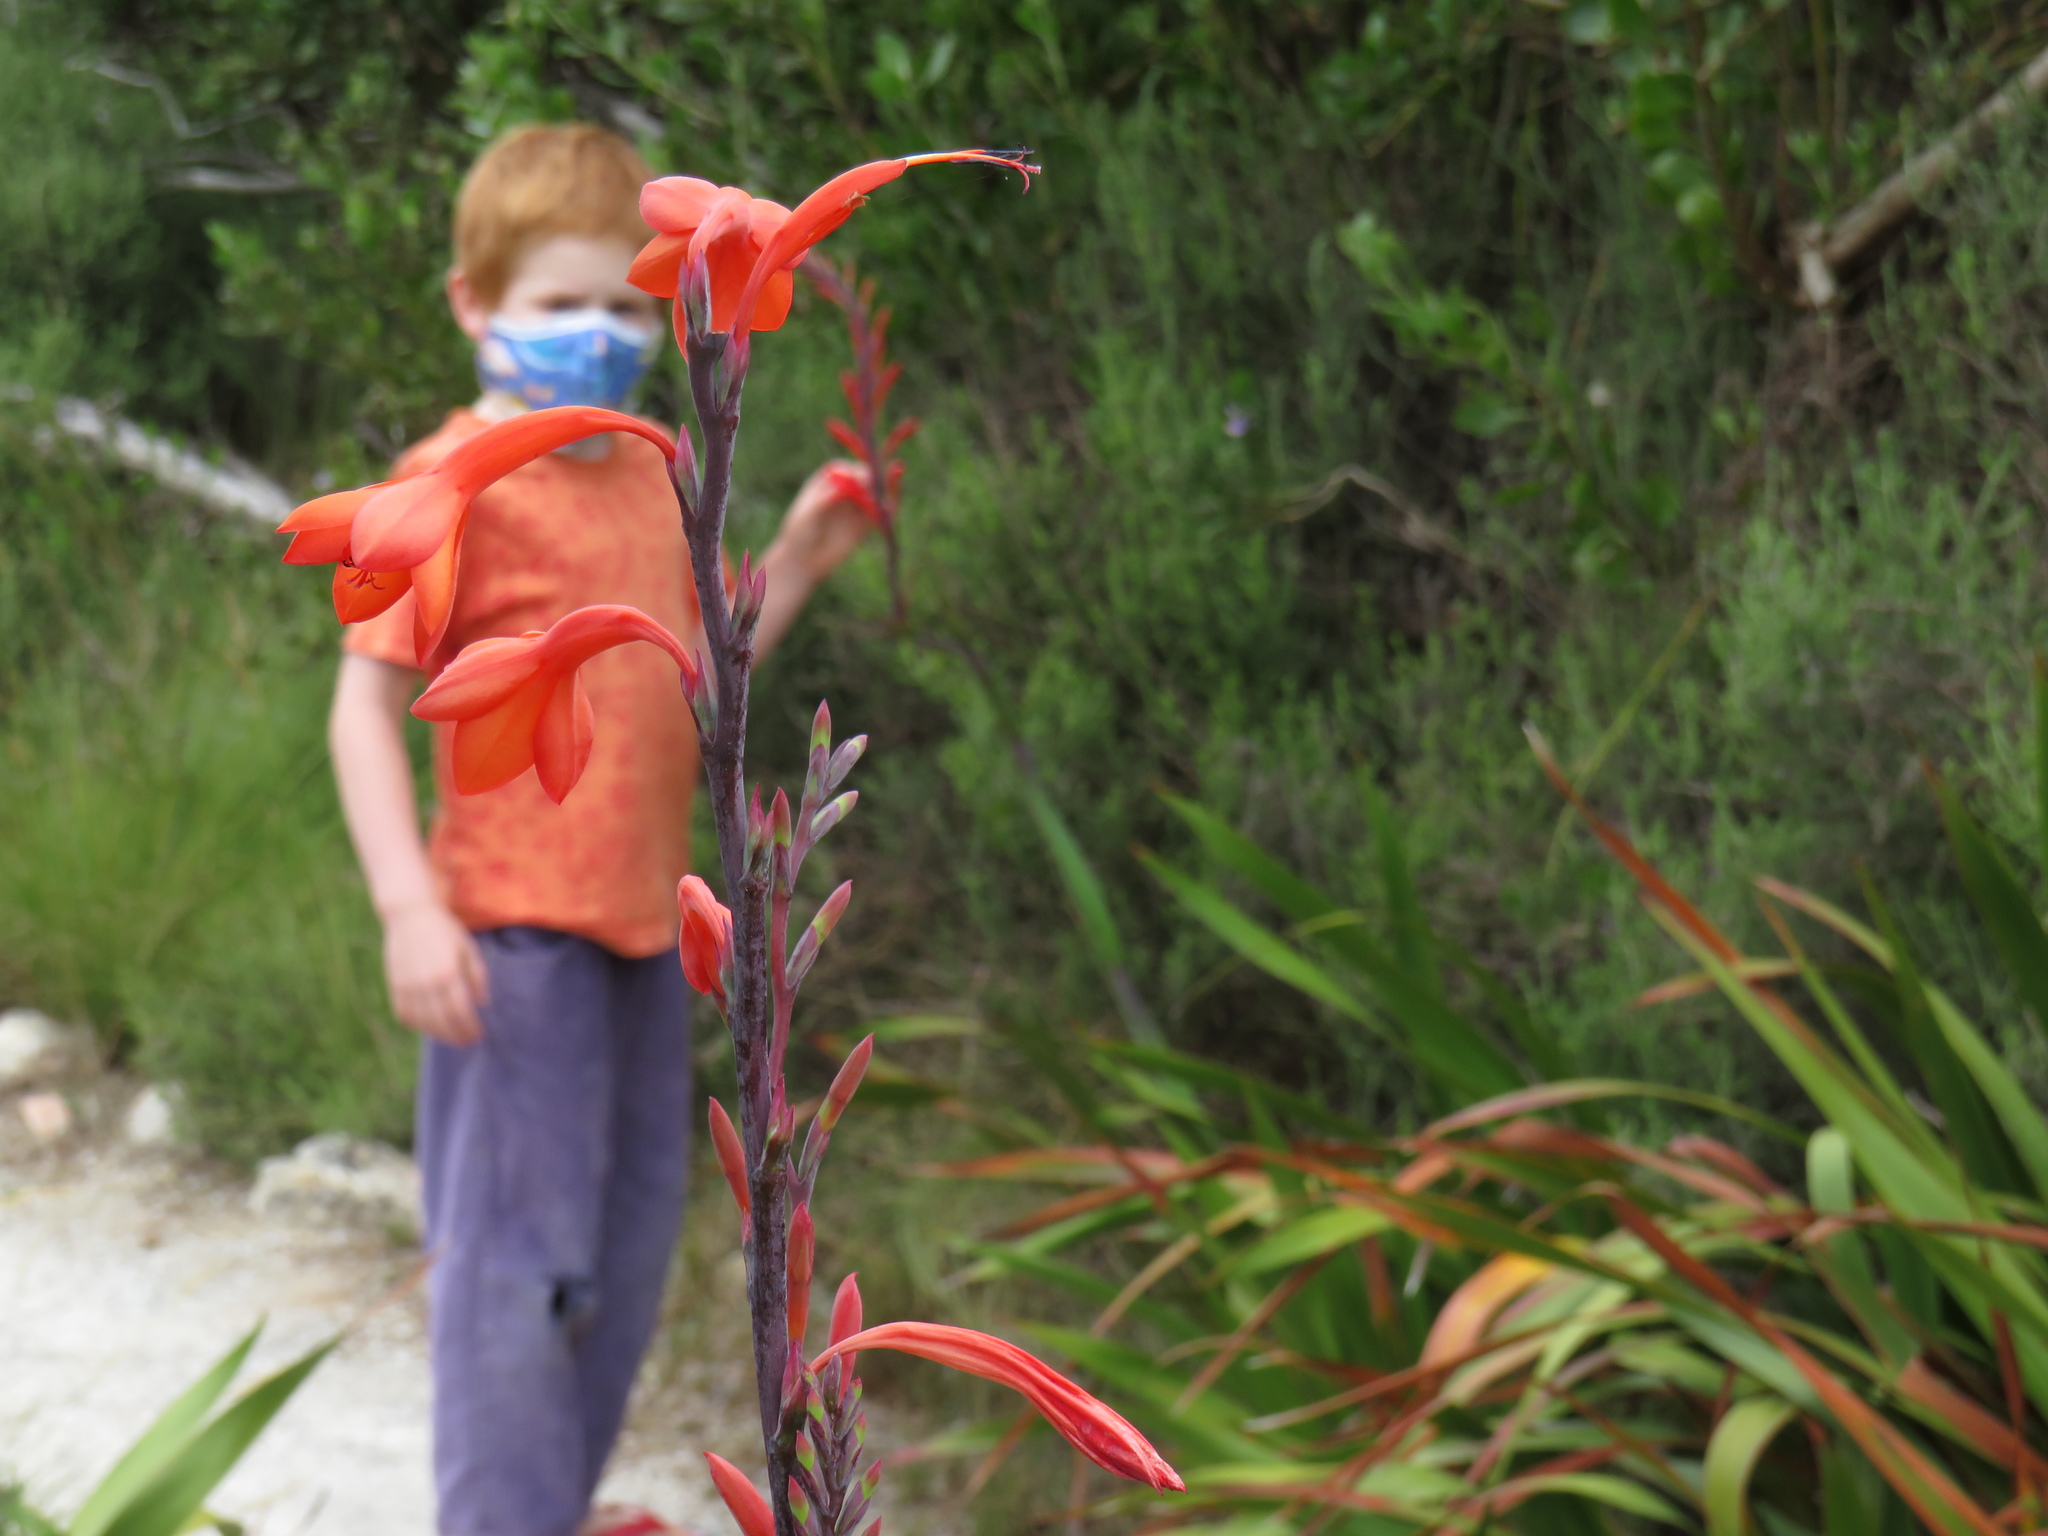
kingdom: Plantae
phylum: Tracheophyta
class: Liliopsida
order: Asparagales
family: Iridaceae
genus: Watsonia
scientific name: Watsonia tabularis
